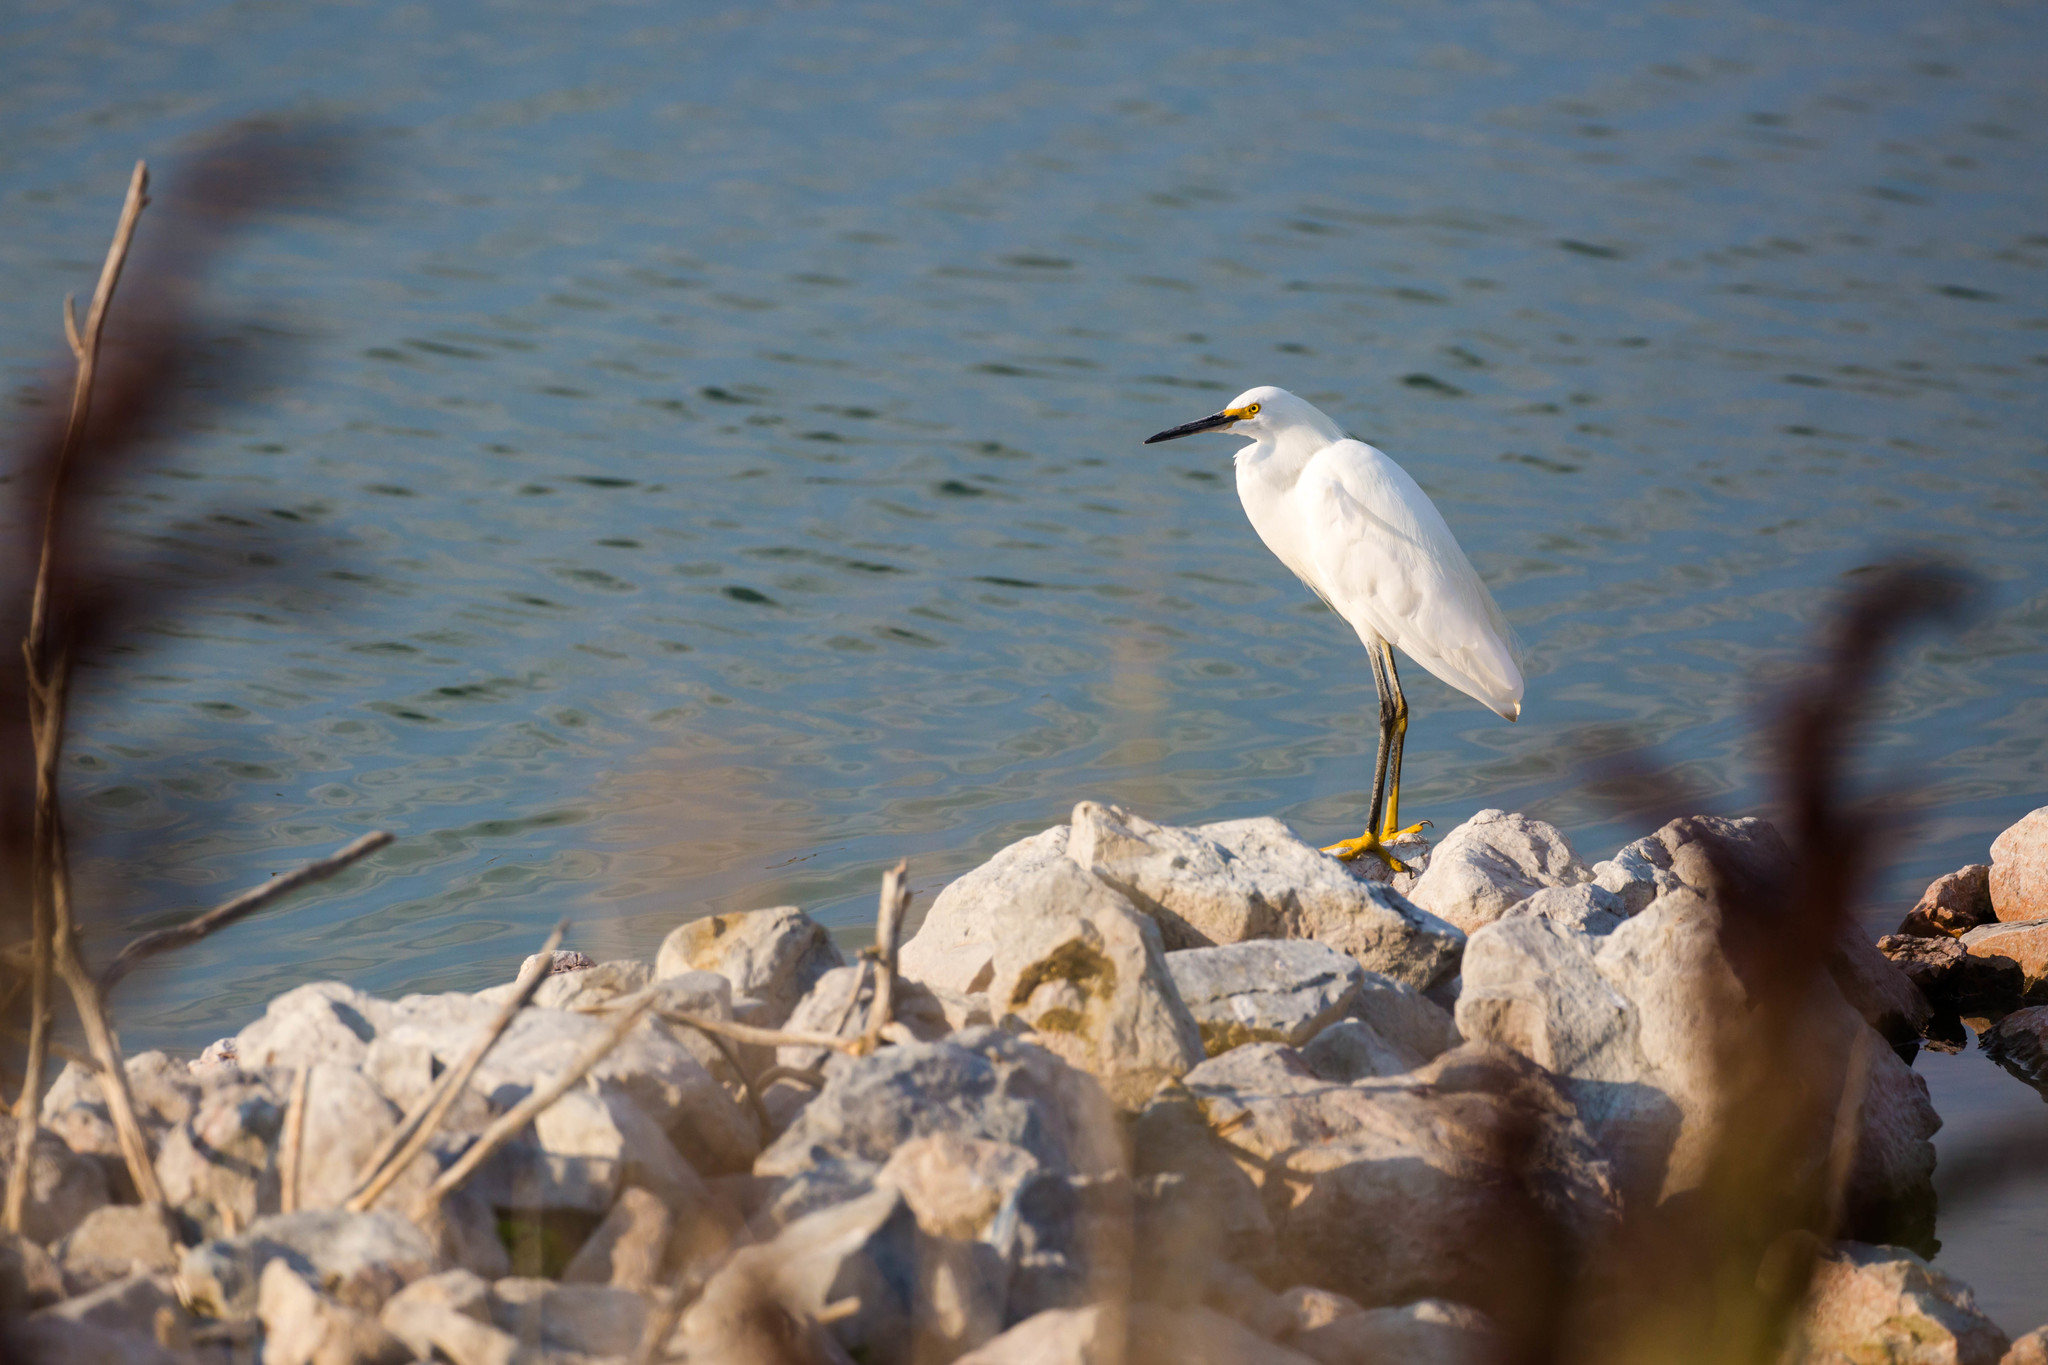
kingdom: Animalia
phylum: Chordata
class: Aves
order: Pelecaniformes
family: Ardeidae
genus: Egretta
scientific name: Egretta thula
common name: Snowy egret
